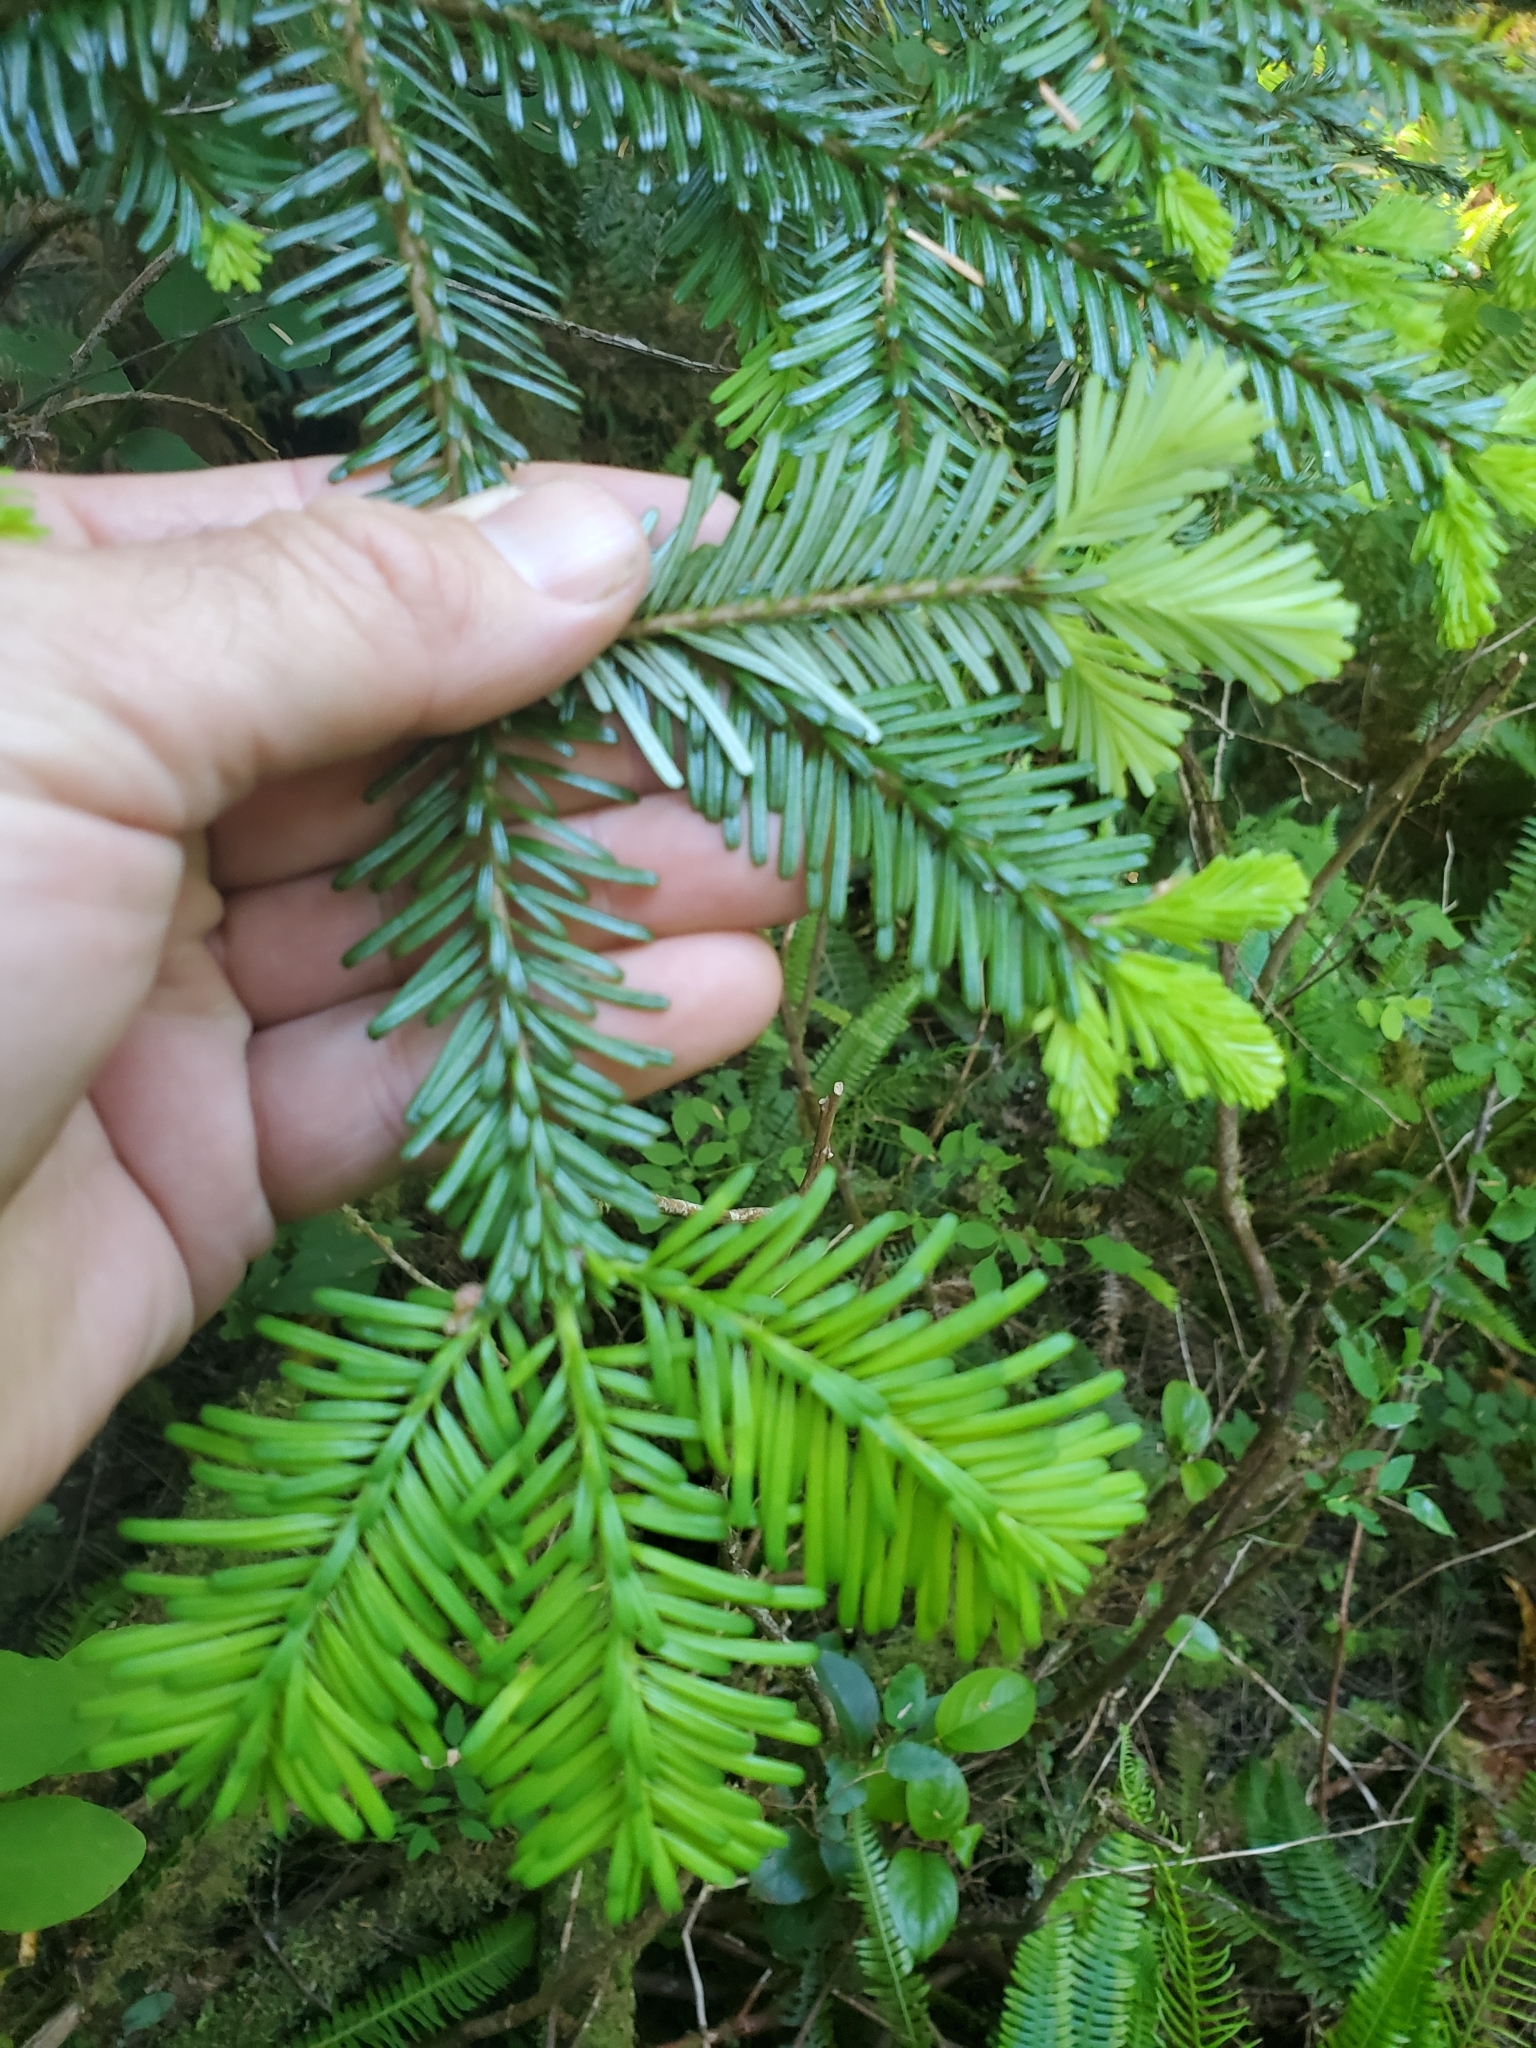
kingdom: Plantae
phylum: Tracheophyta
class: Pinopsida
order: Pinales
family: Pinaceae
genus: Abies
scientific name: Abies amabilis
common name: Pacific silver fir
